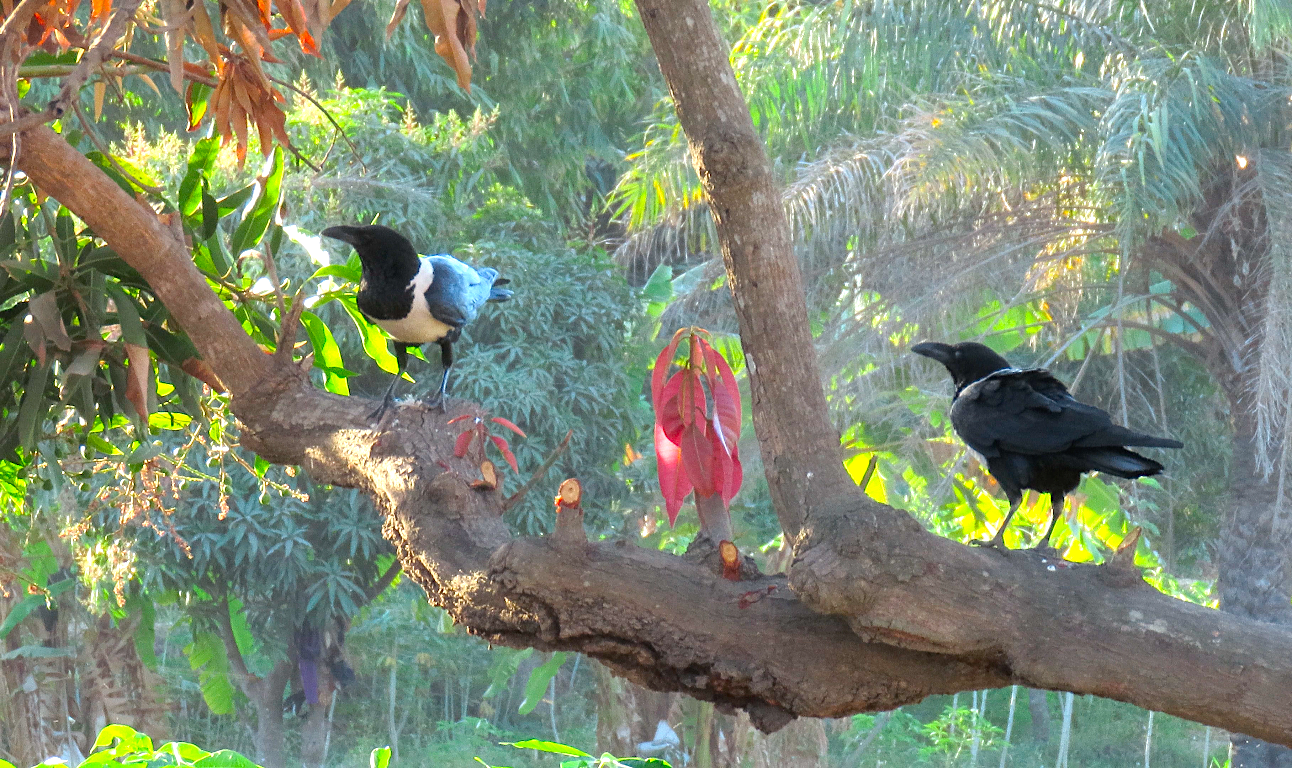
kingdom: Animalia
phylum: Chordata
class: Aves
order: Passeriformes
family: Corvidae
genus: Corvus
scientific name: Corvus albus
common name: Pied crow
